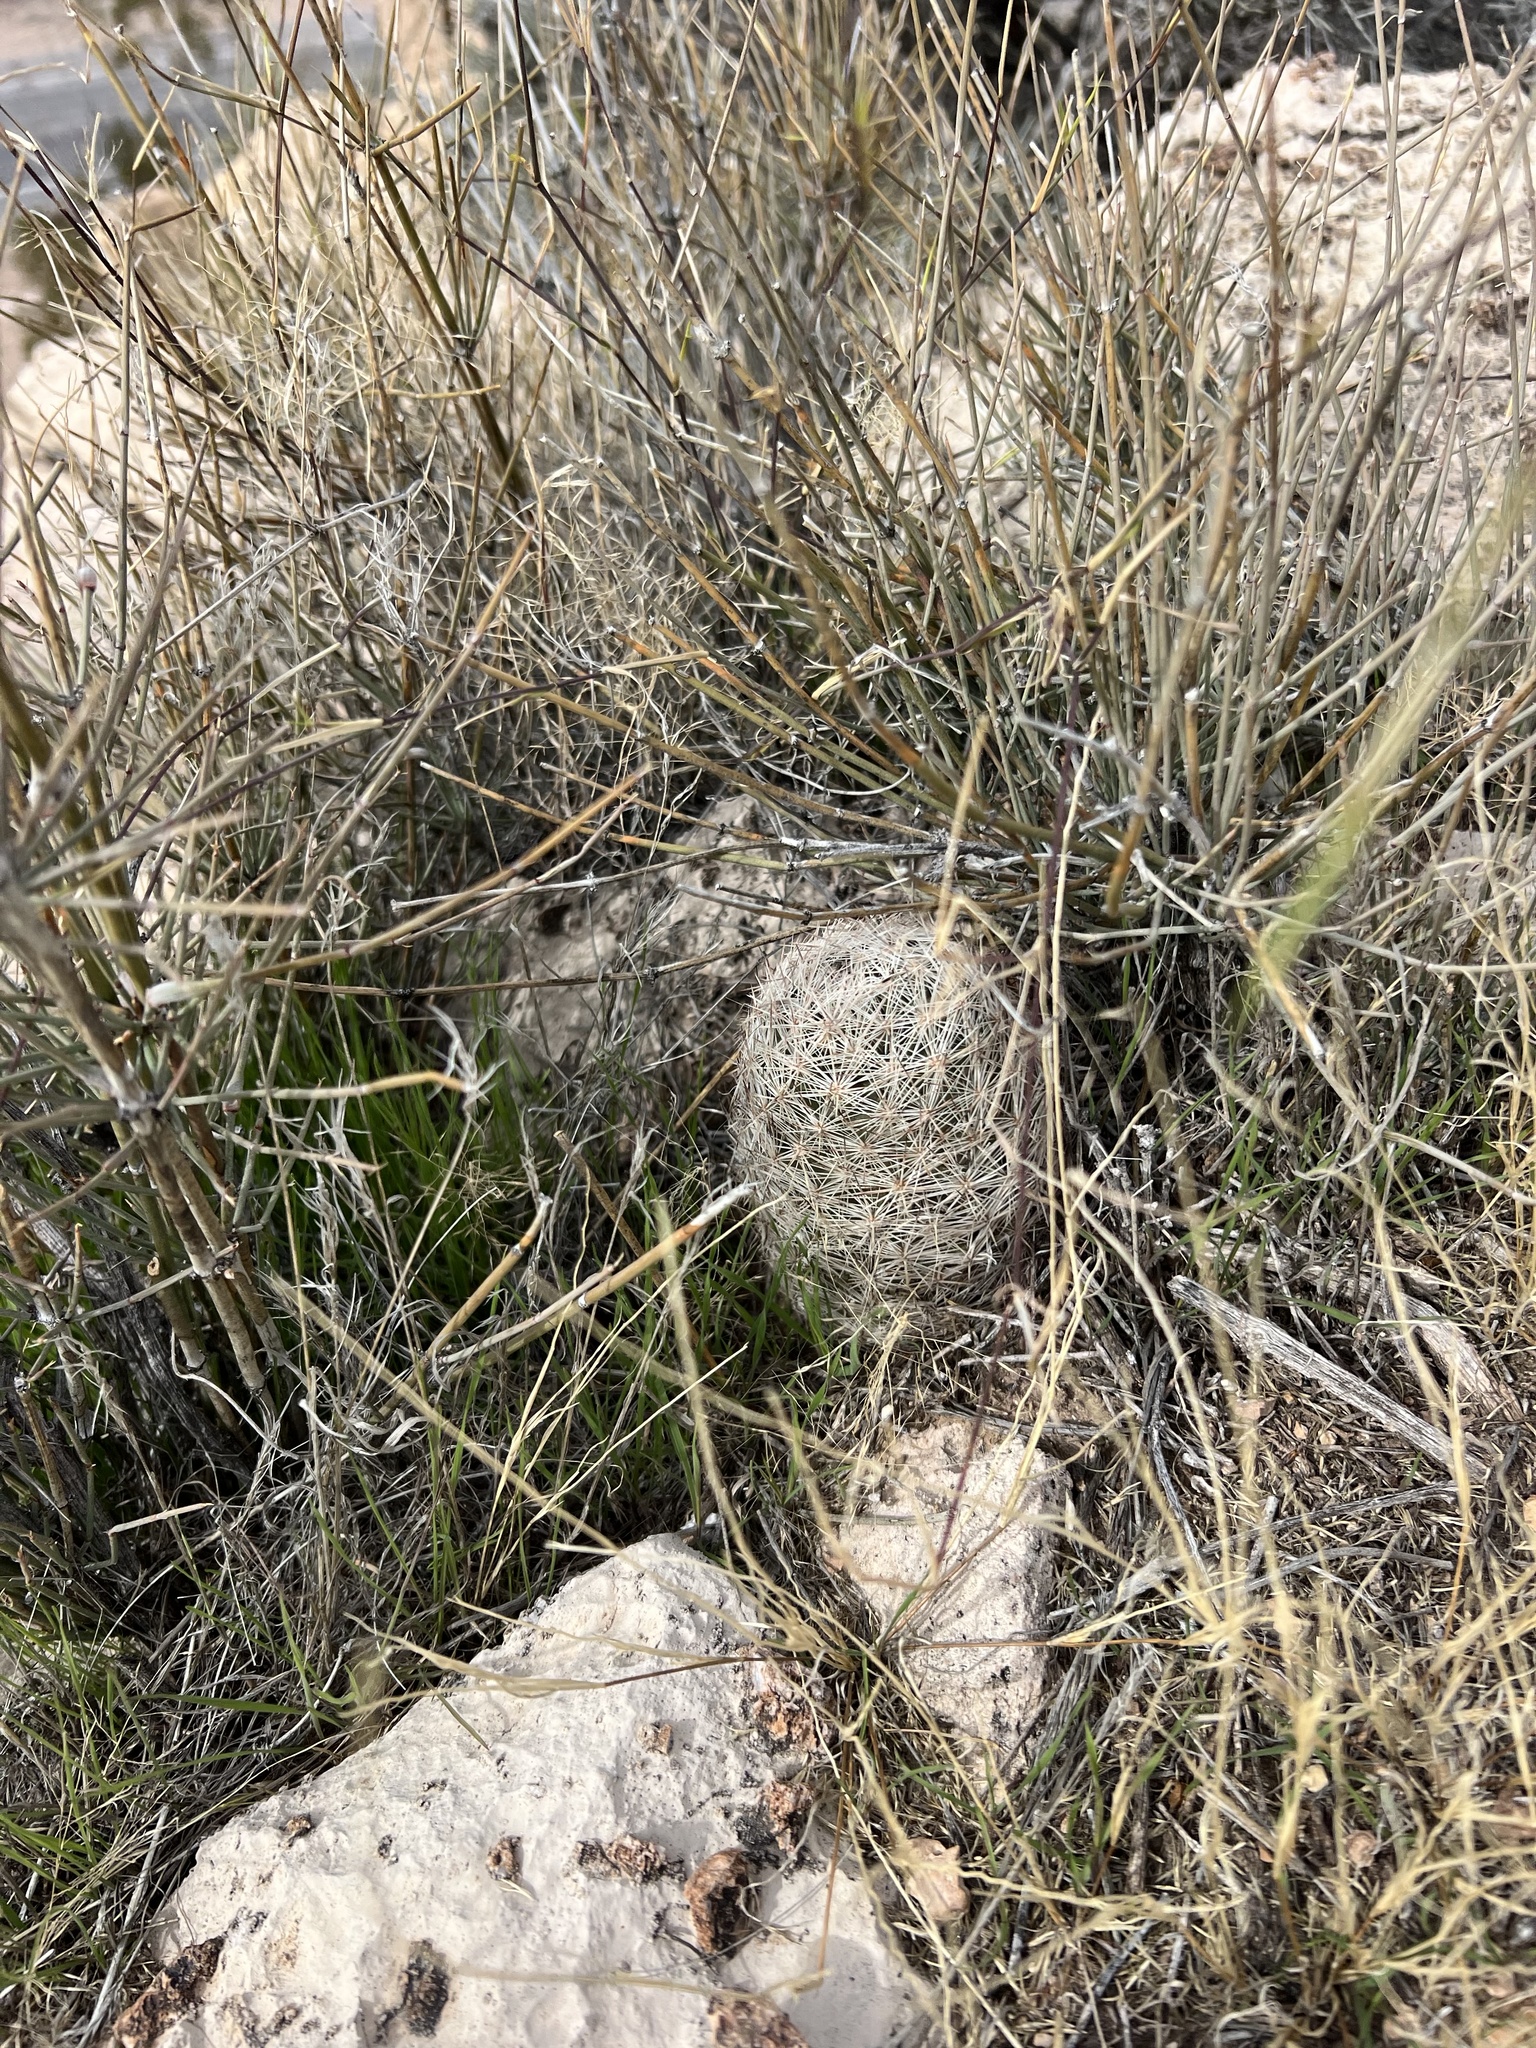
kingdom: Plantae
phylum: Tracheophyta
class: Magnoliopsida
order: Caryophyllales
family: Cactaceae
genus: Pelecyphora
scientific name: Pelecyphora dasyacantha
